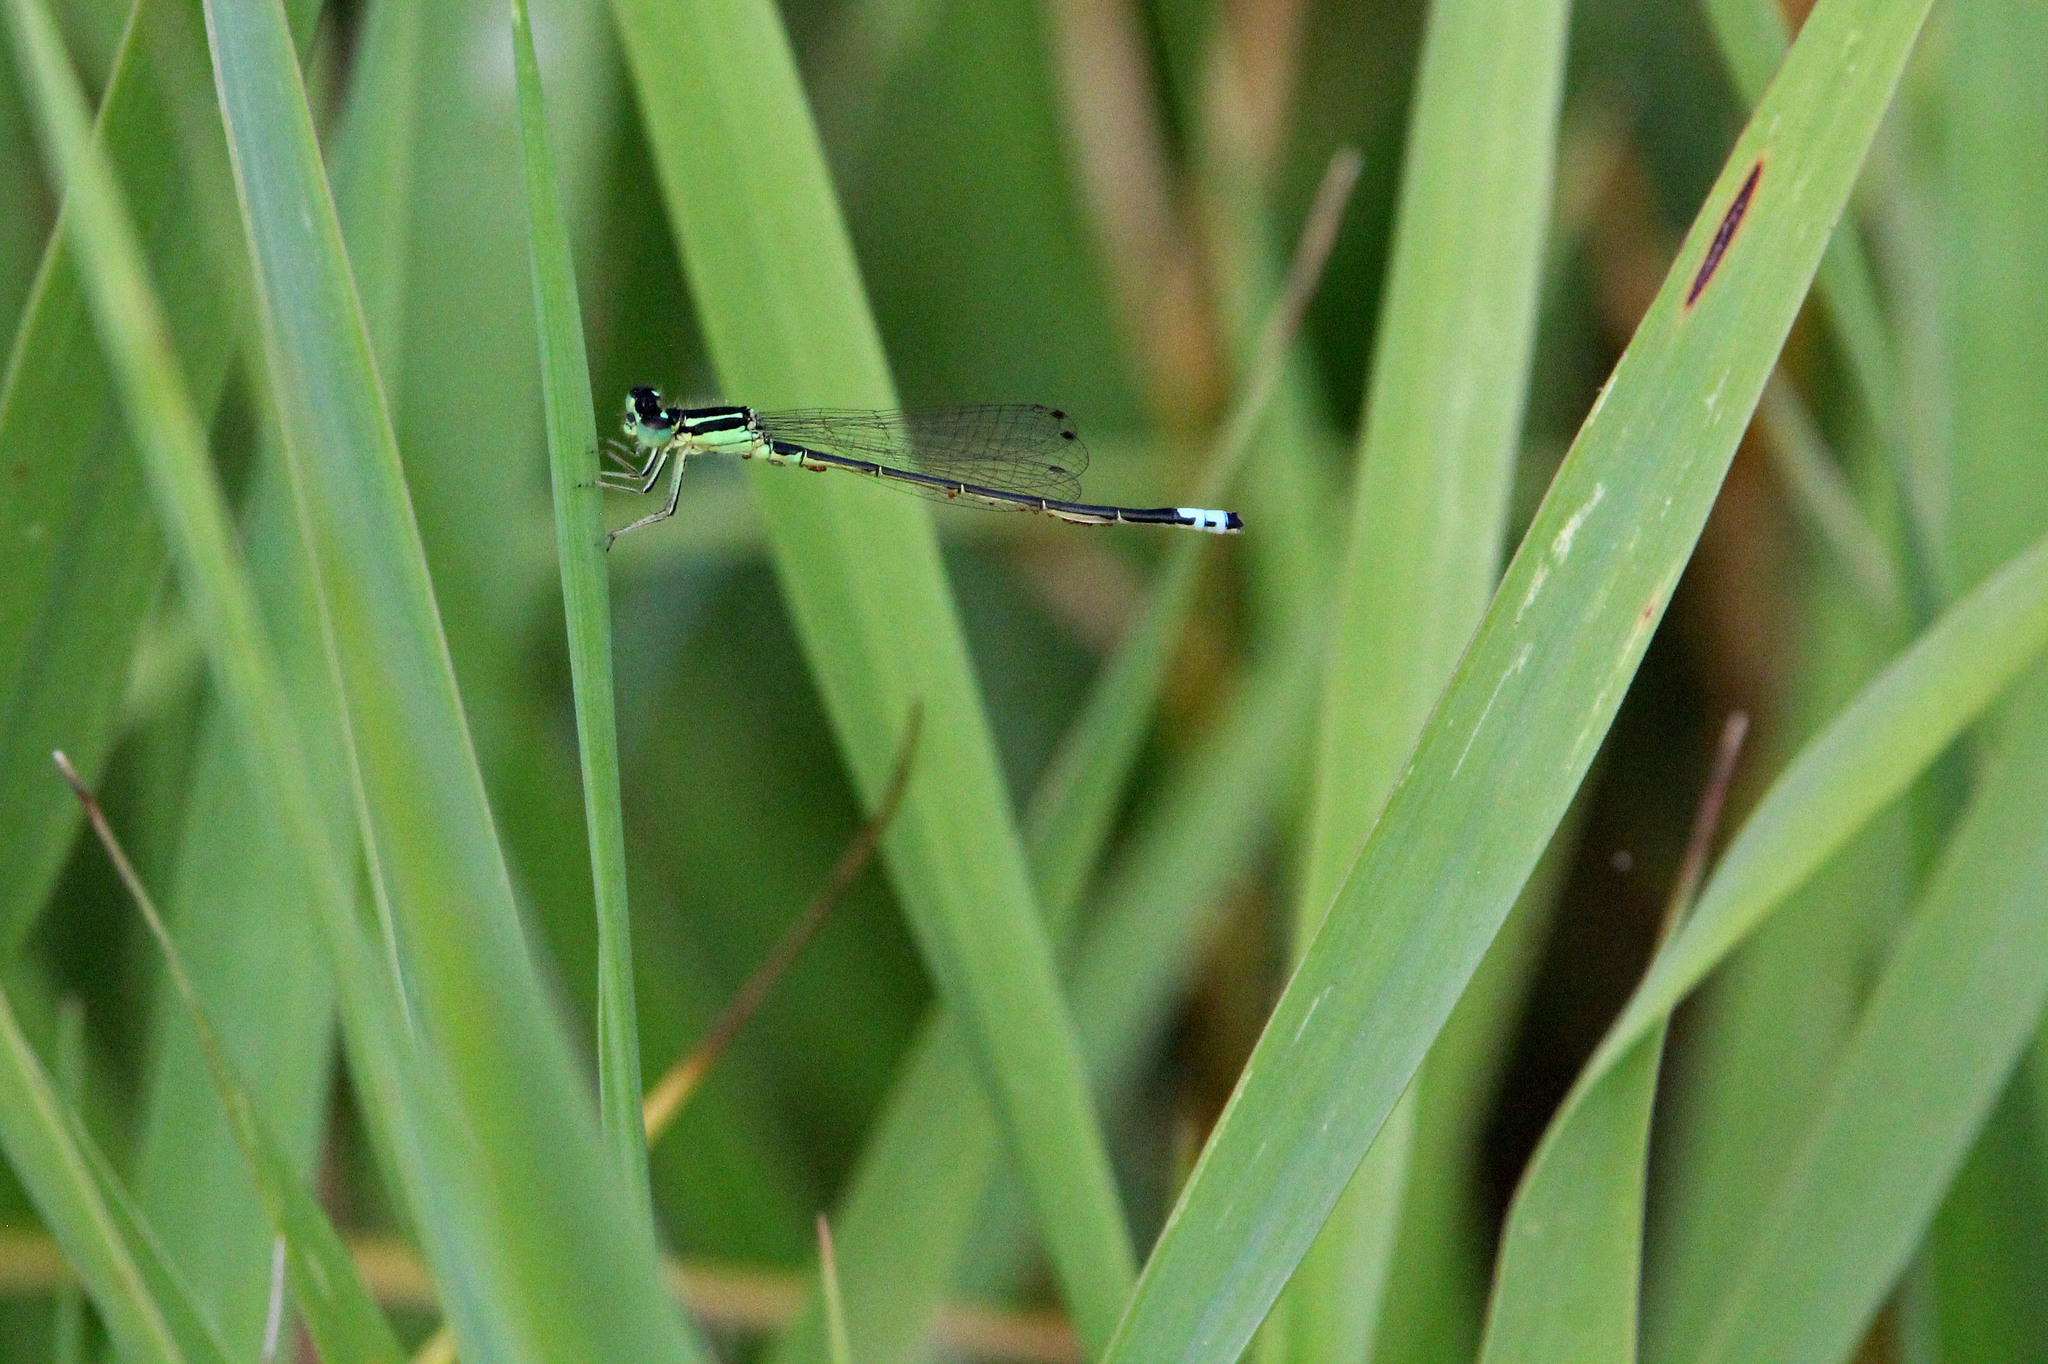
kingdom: Animalia
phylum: Arthropoda
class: Insecta
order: Odonata
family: Coenagrionidae
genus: Ischnura
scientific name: Ischnura verticalis
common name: Eastern forktail
